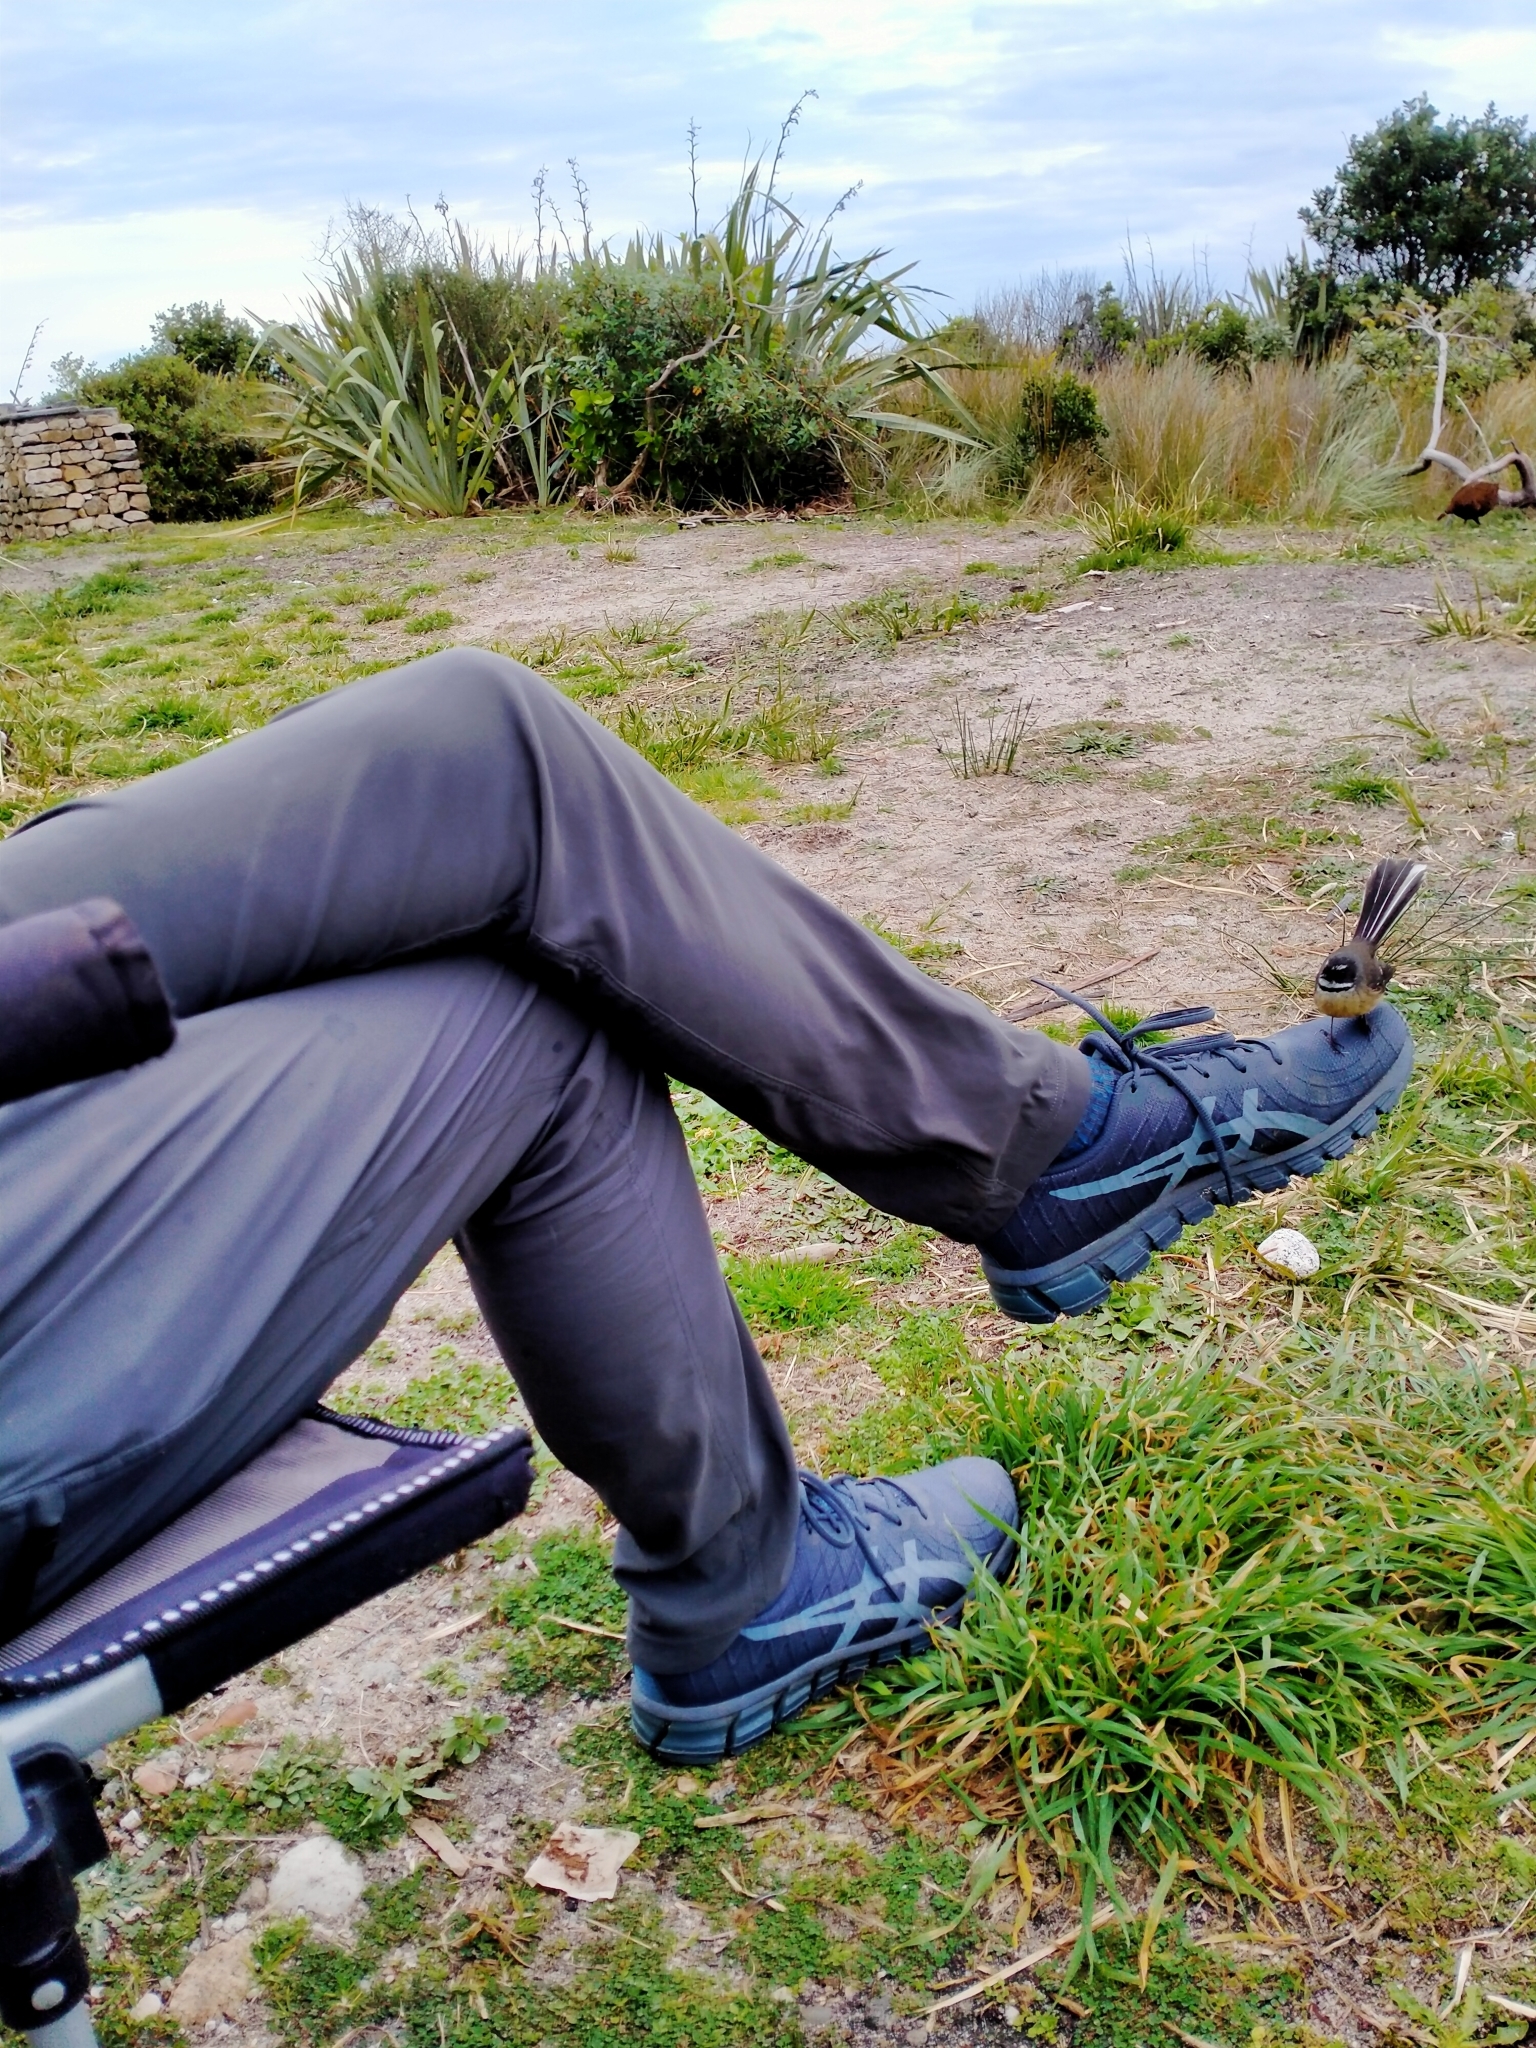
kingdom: Animalia
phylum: Chordata
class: Aves
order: Passeriformes
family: Rhipiduridae
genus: Rhipidura
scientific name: Rhipidura fuliginosa
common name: New zealand fantail
